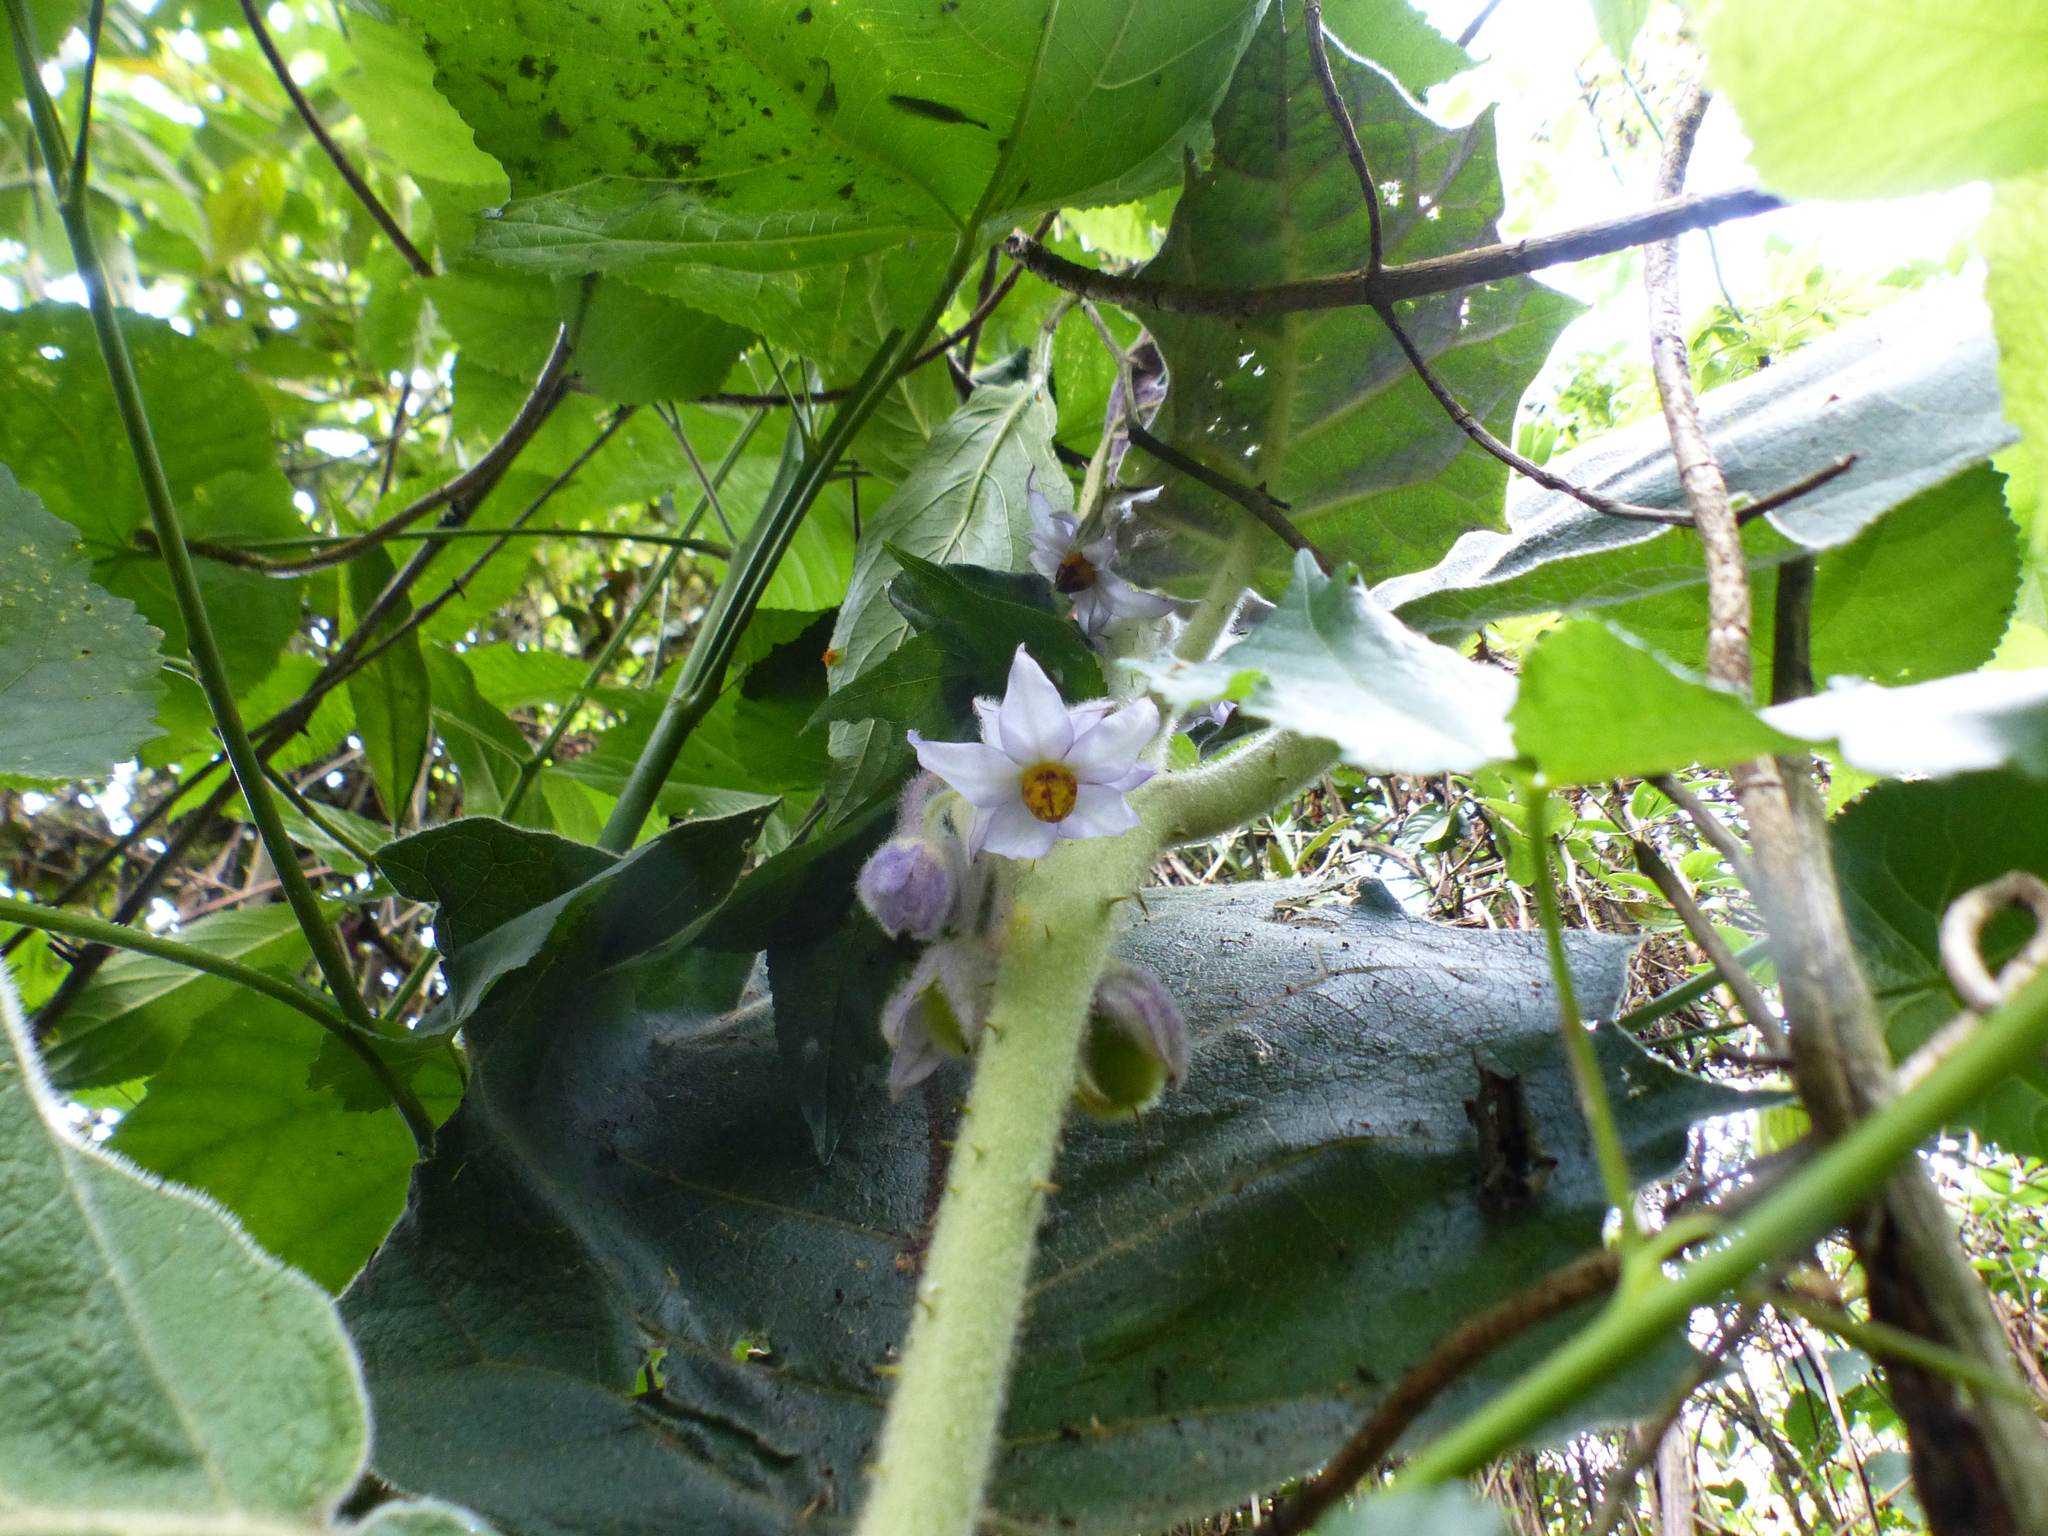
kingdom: Plantae
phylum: Tracheophyta
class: Magnoliopsida
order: Solanales
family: Solanaceae
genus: Solanum
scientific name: Solanum vestissimum
